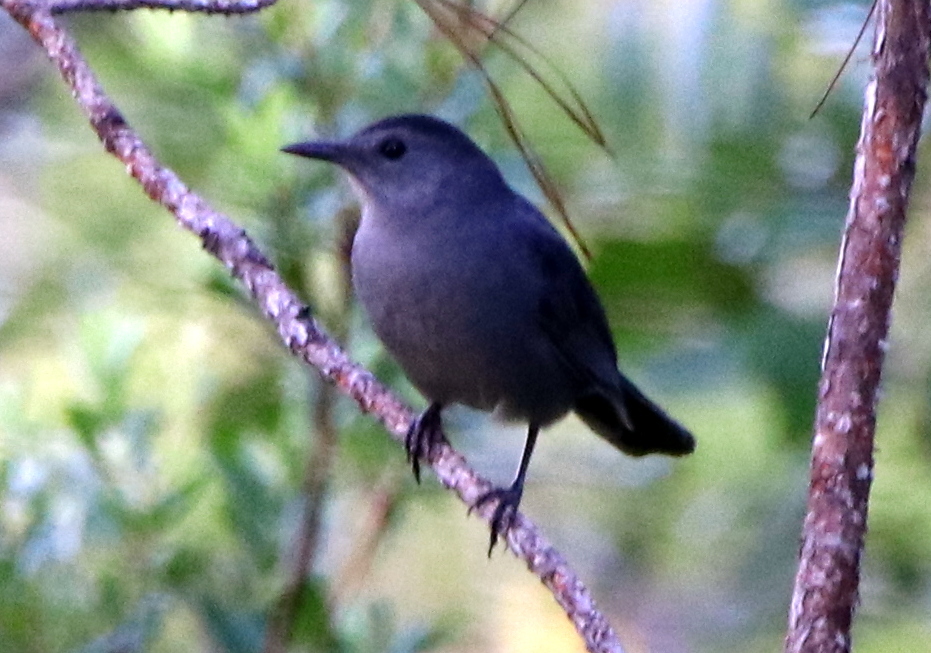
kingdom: Animalia
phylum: Chordata
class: Aves
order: Passeriformes
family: Mimidae
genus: Dumetella
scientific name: Dumetella carolinensis
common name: Gray catbird
